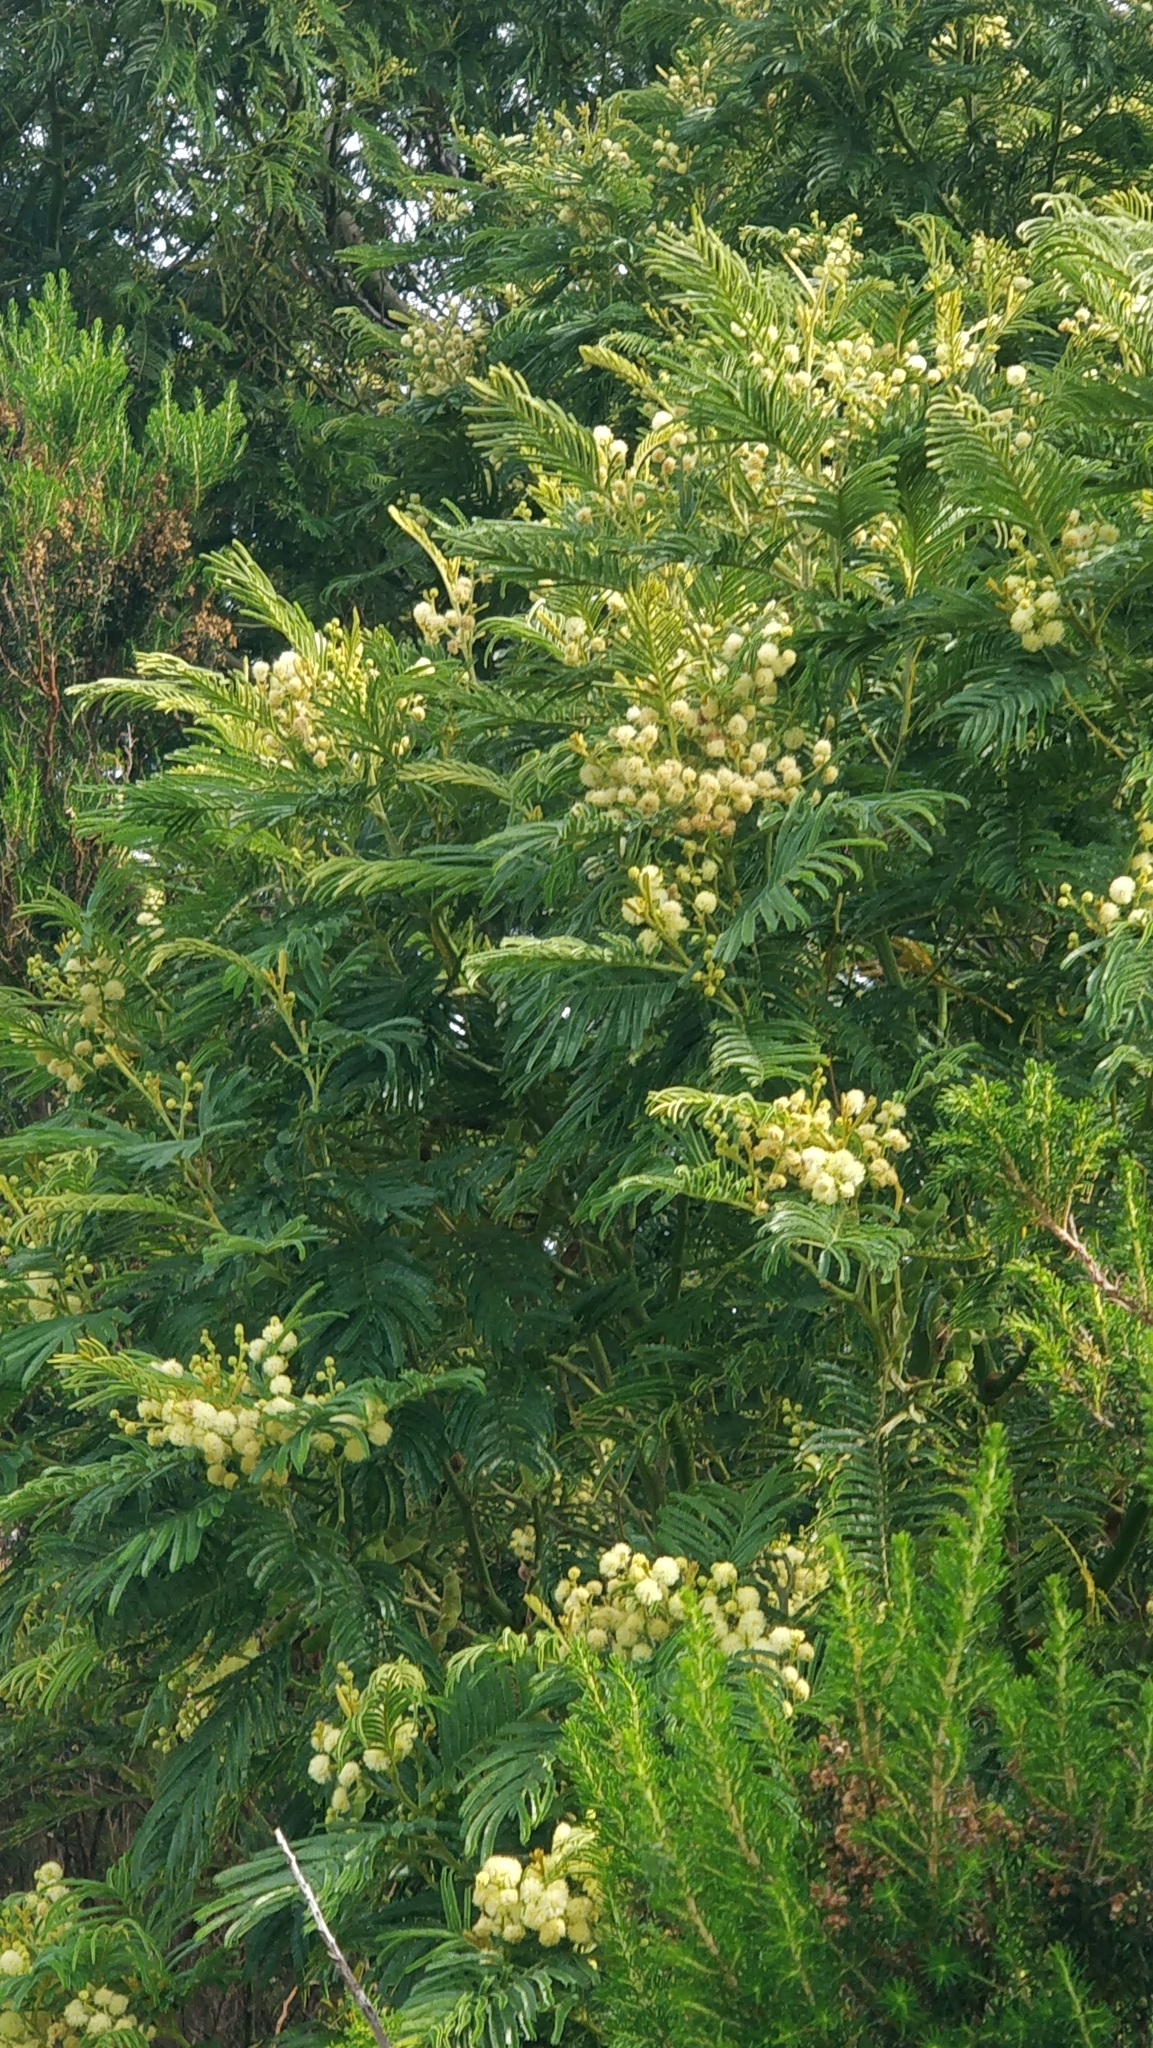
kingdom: Plantae
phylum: Tracheophyta
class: Magnoliopsida
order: Fabales
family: Fabaceae
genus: Acacia
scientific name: Acacia mearnsii
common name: Black wattle
